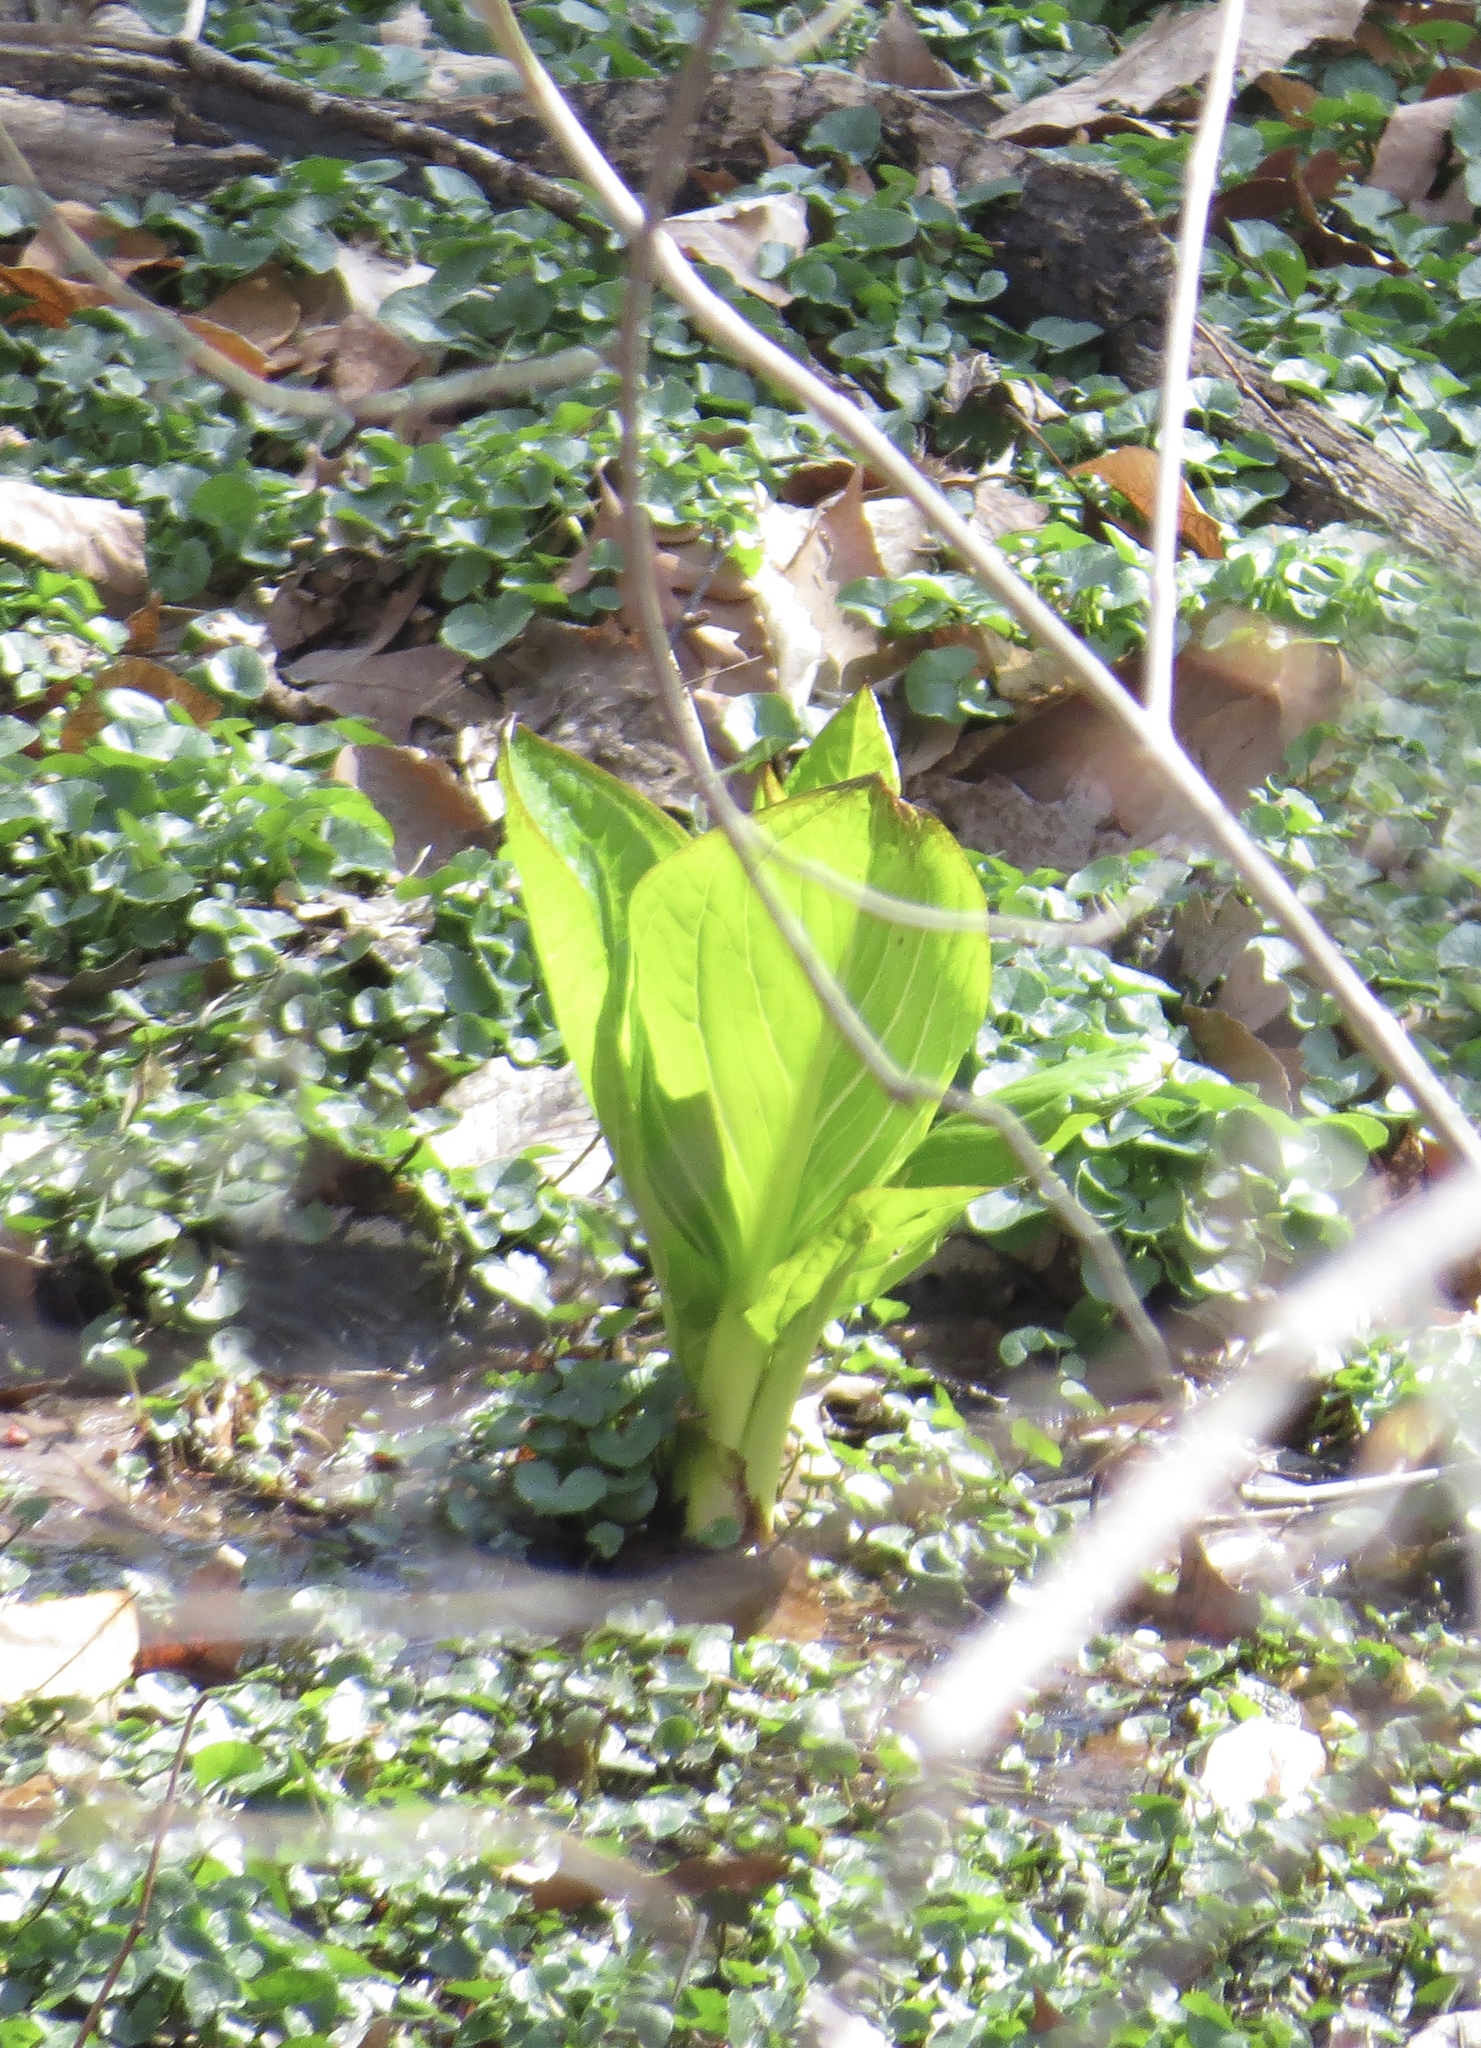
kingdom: Plantae
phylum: Tracheophyta
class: Liliopsida
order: Alismatales
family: Araceae
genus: Symplocarpus
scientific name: Symplocarpus foetidus
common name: Eastern skunk cabbage
